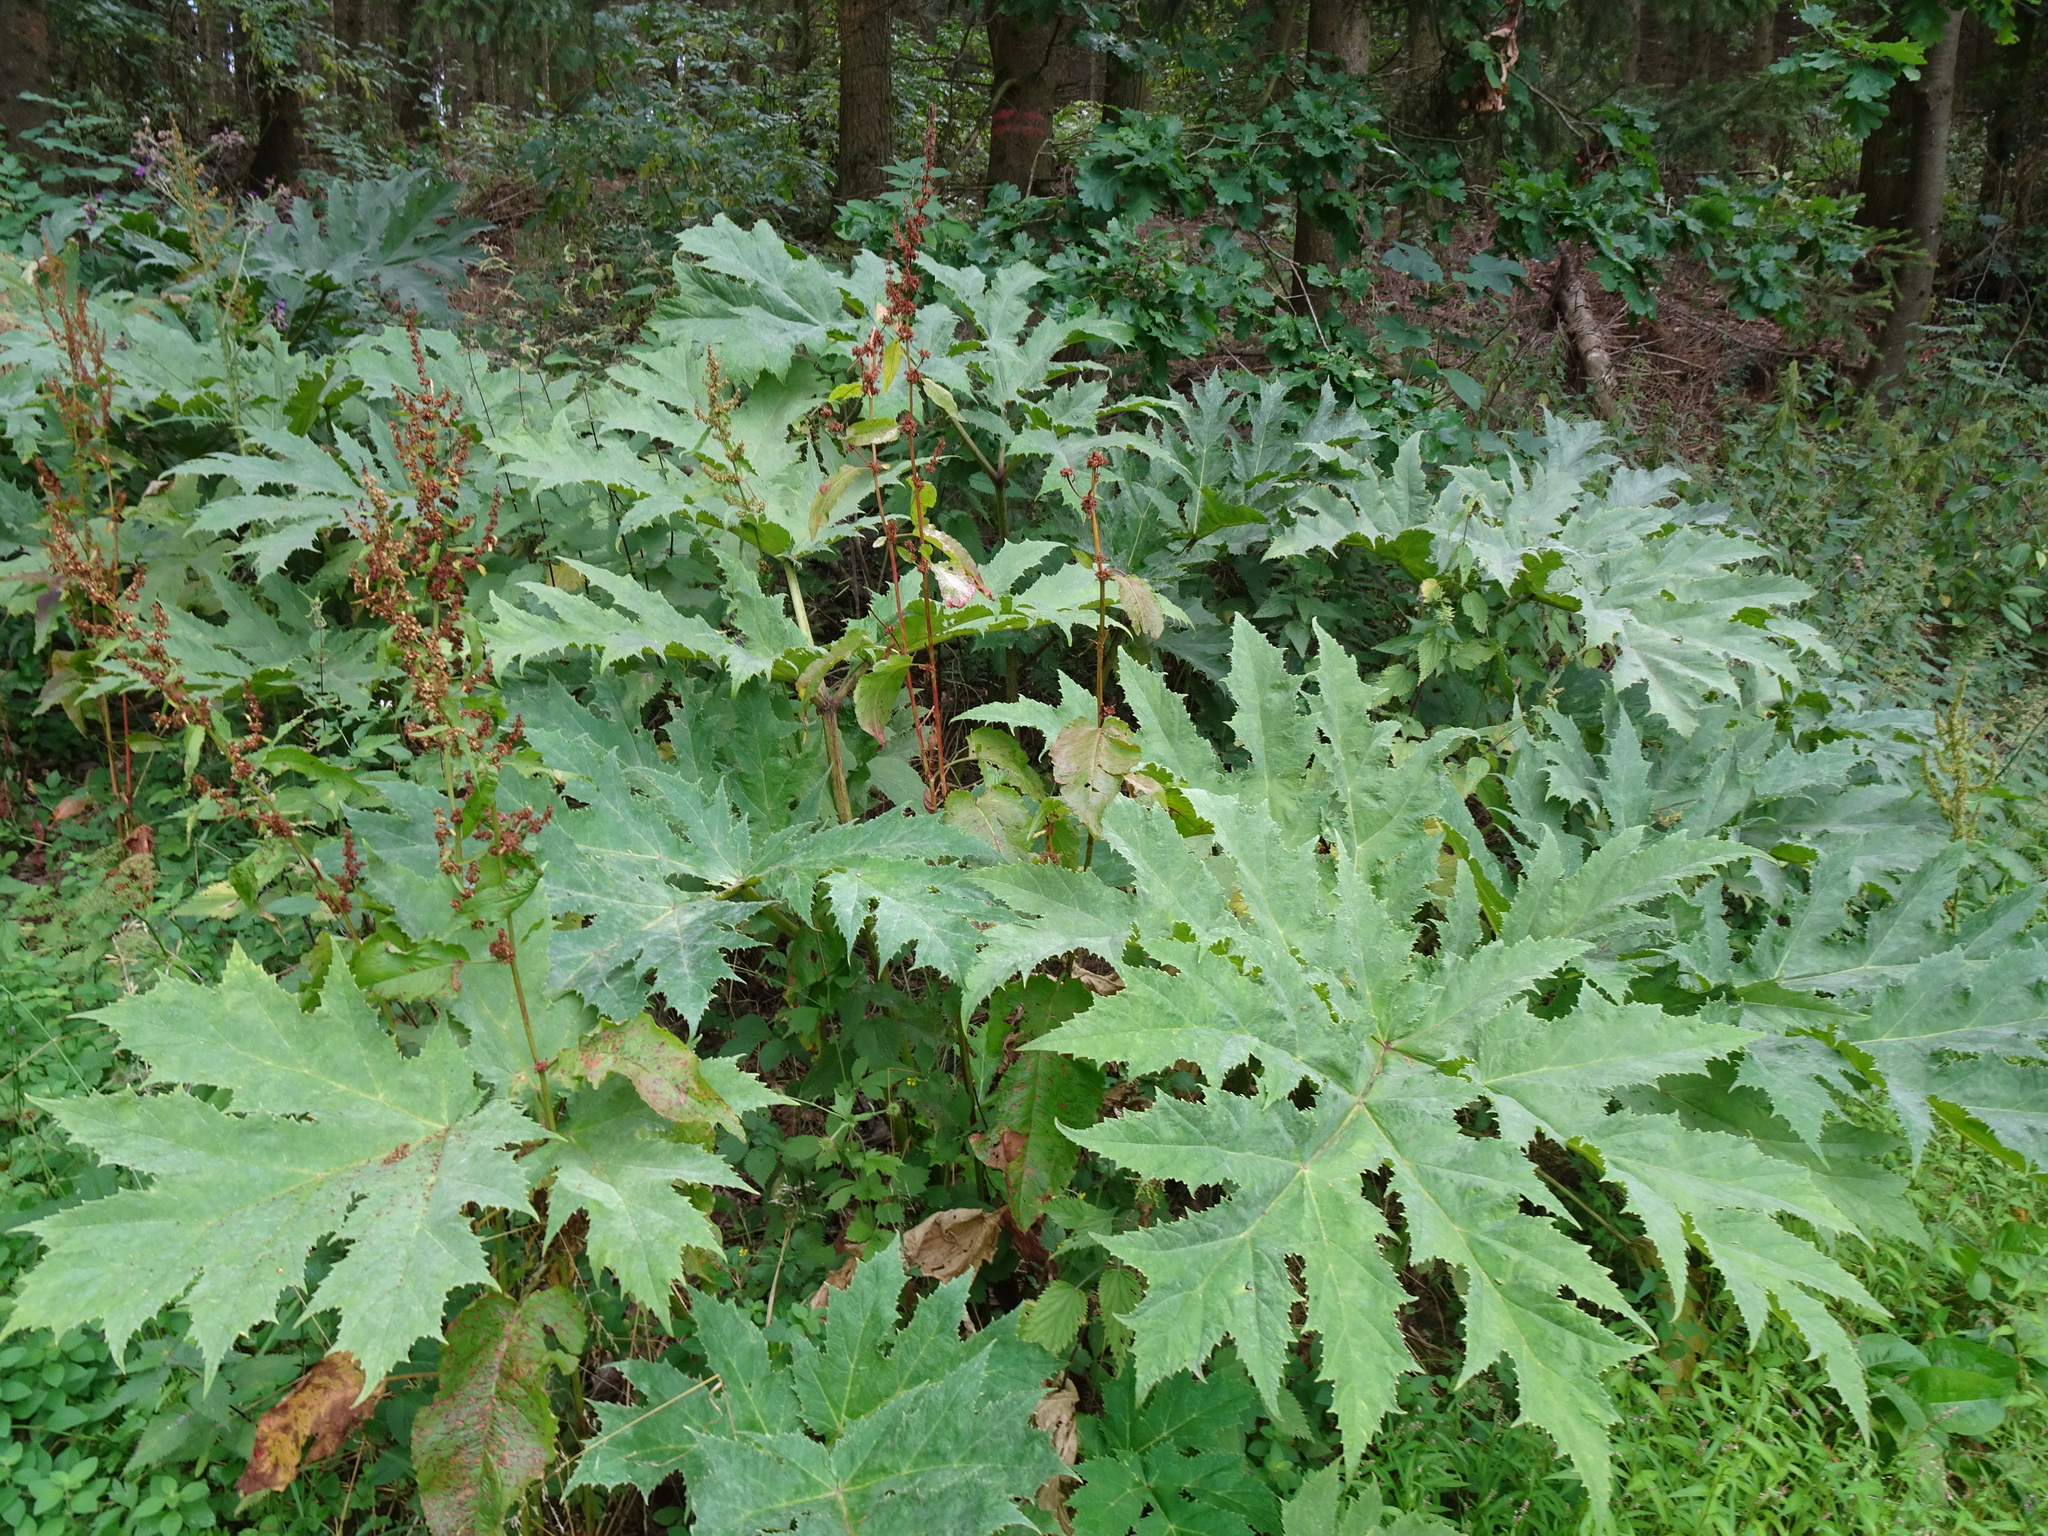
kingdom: Plantae
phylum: Tracheophyta
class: Magnoliopsida
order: Apiales
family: Apiaceae
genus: Heracleum
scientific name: Heracleum mantegazzianum
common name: Giant hogweed
